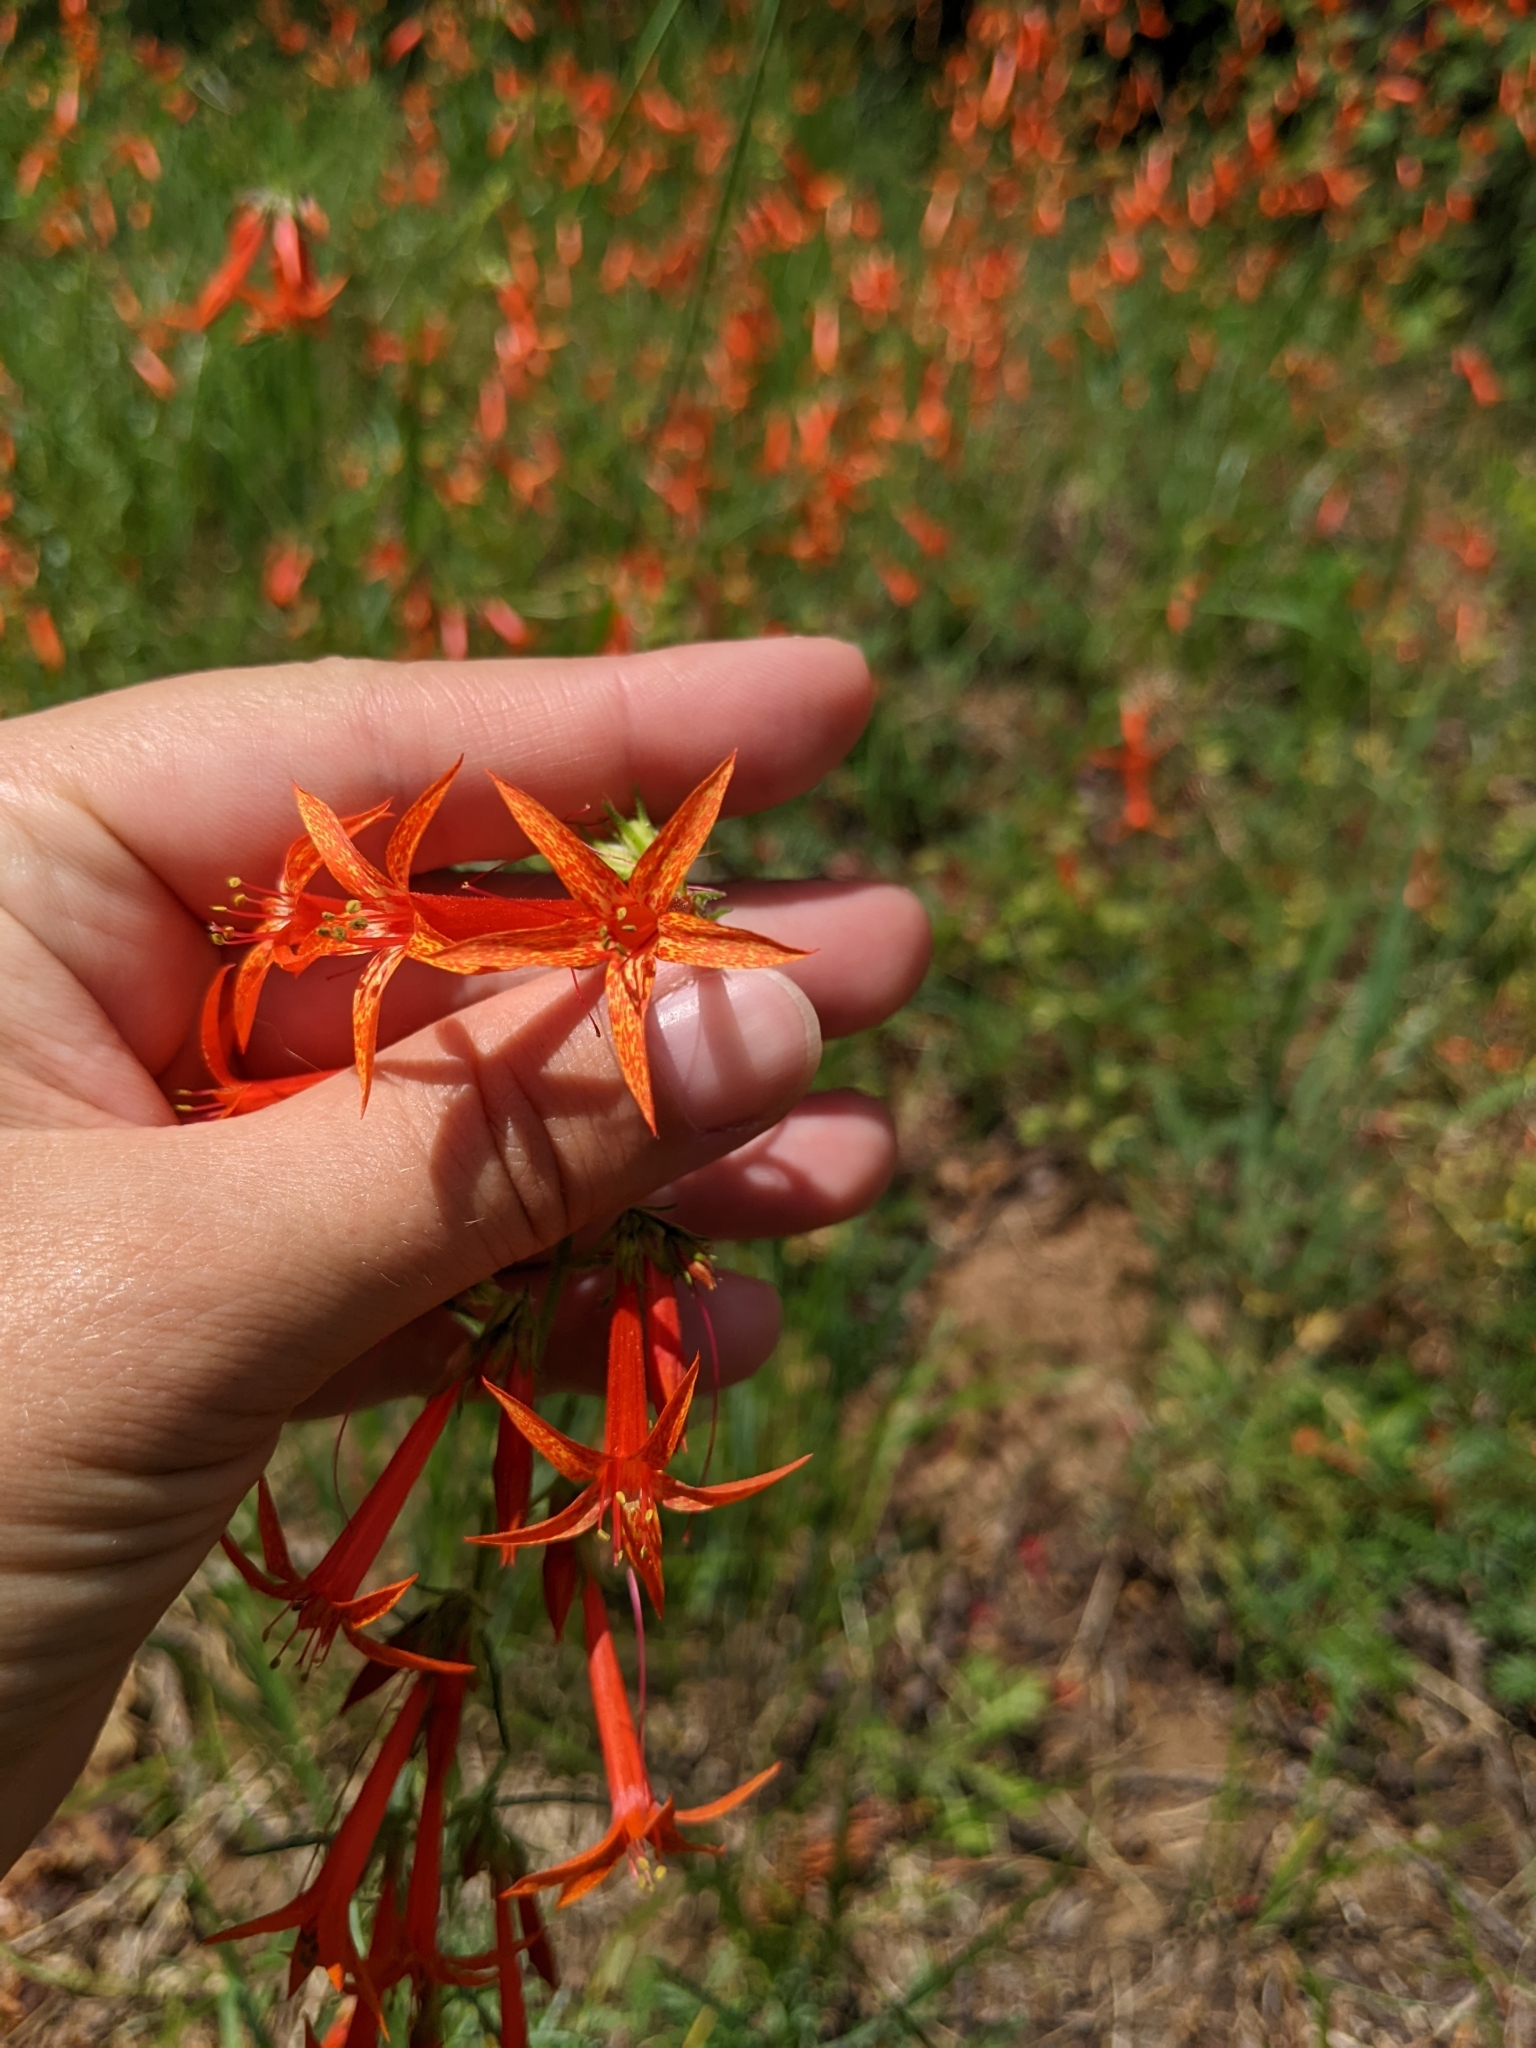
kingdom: Plantae
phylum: Tracheophyta
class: Magnoliopsida
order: Ericales
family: Polemoniaceae
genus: Ipomopsis
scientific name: Ipomopsis aggregata
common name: Scarlet gilia
